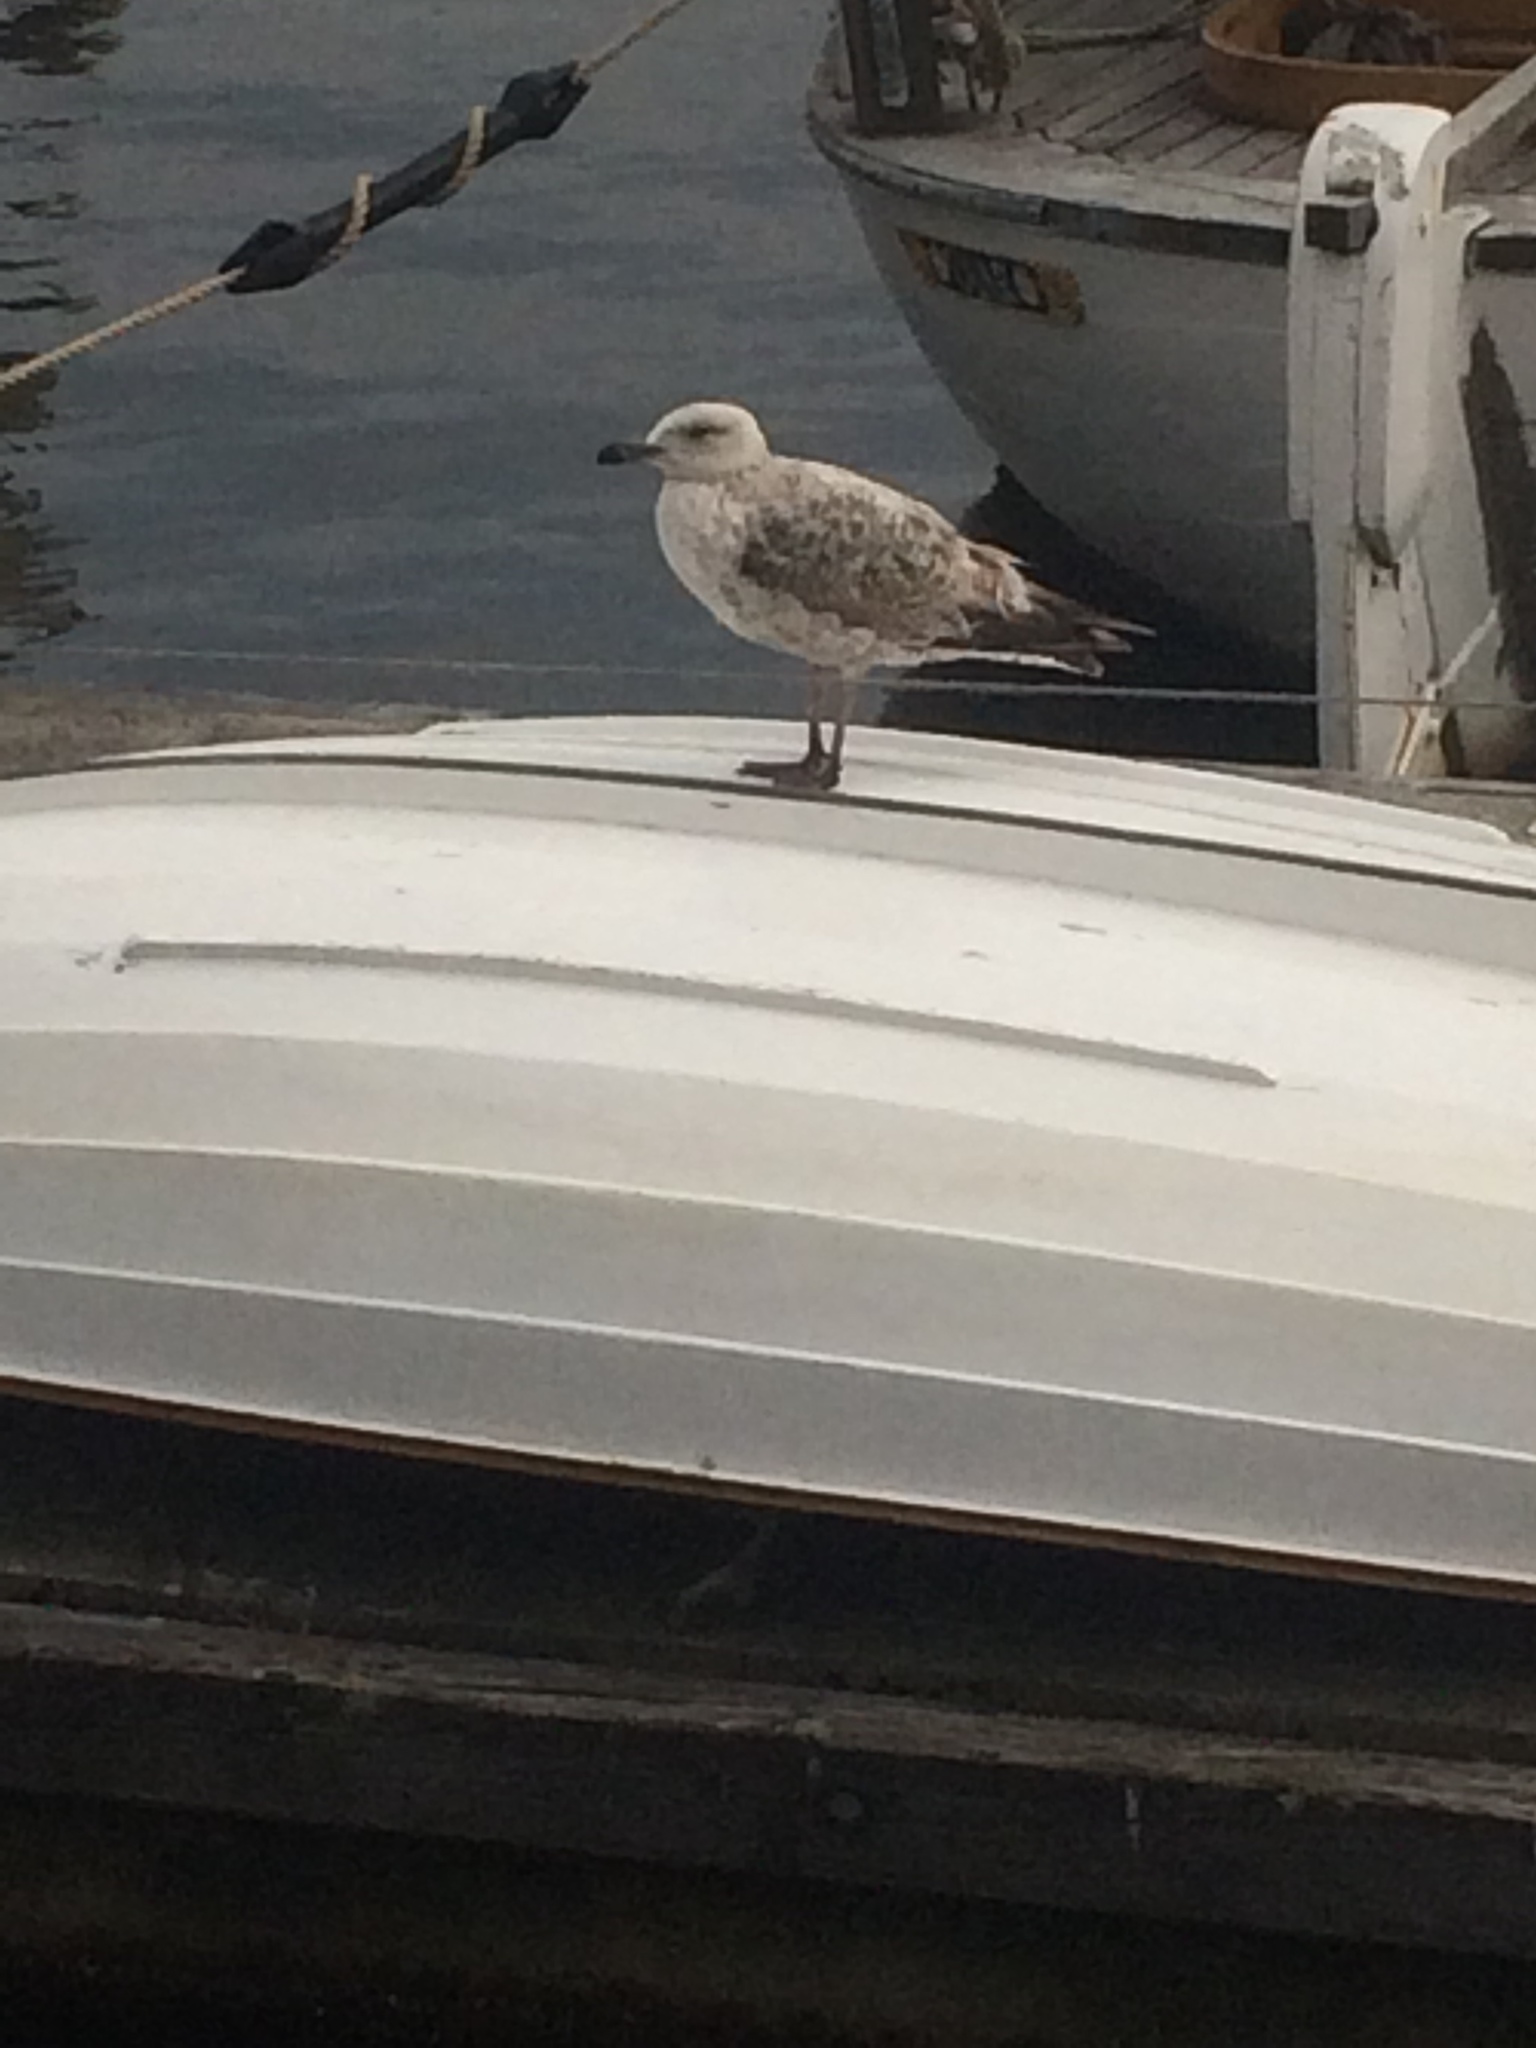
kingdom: Animalia
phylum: Chordata
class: Aves
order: Charadriiformes
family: Laridae
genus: Larus
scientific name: Larus argentatus
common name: Herring gull
